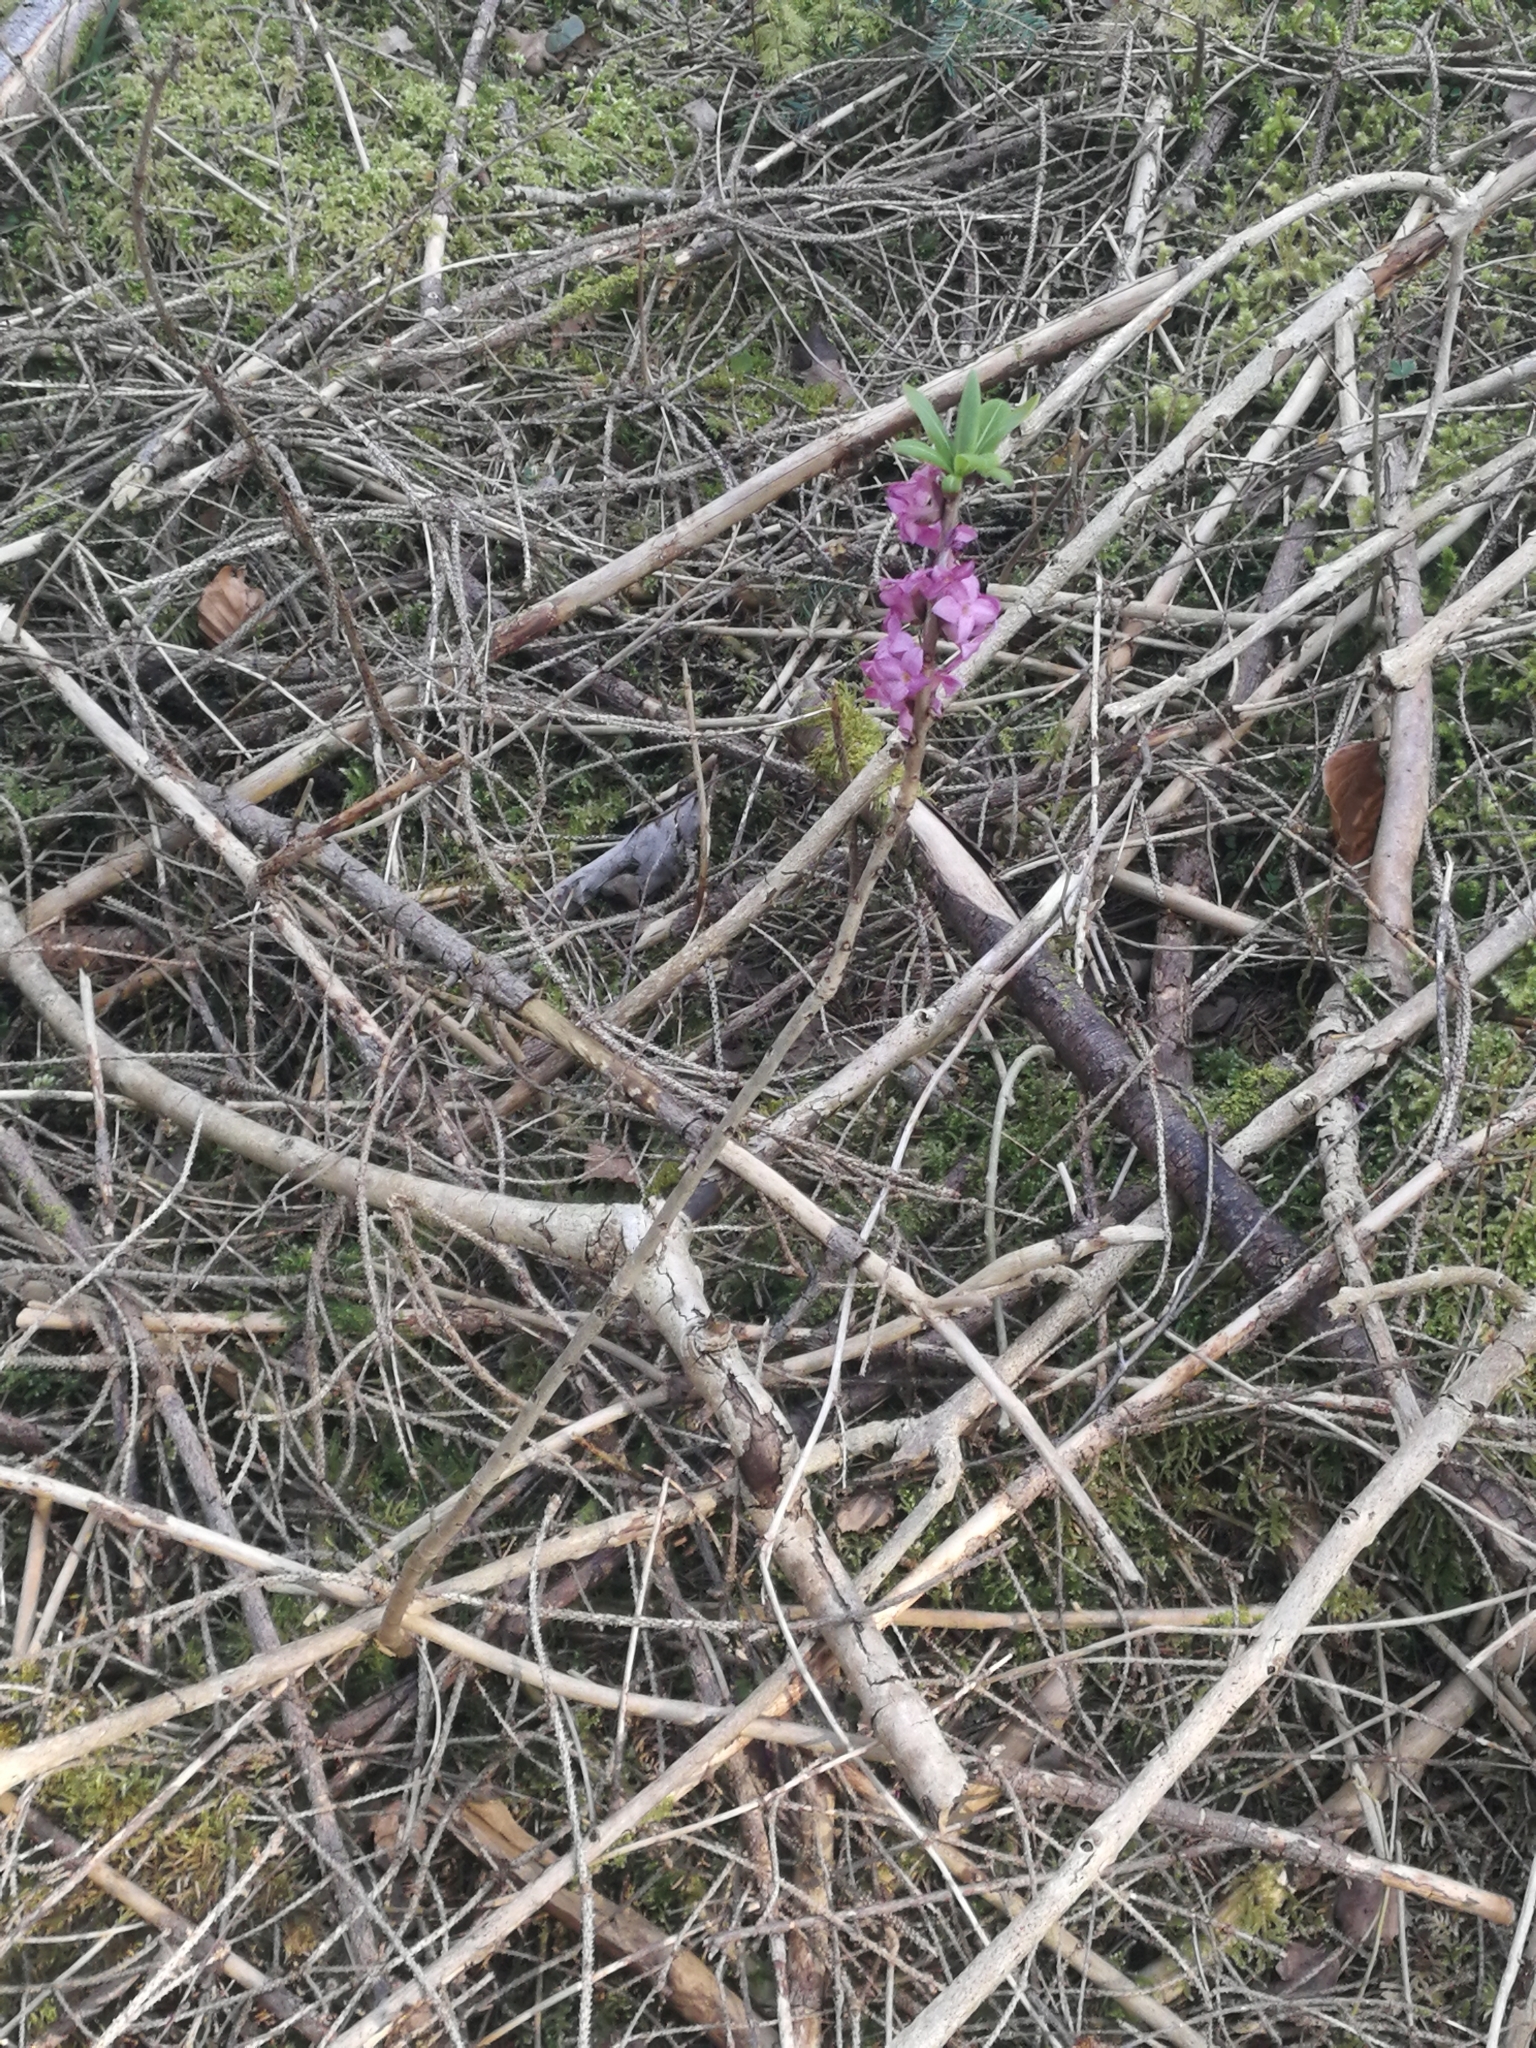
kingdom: Plantae
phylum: Tracheophyta
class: Magnoliopsida
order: Malvales
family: Thymelaeaceae
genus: Daphne
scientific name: Daphne mezereum
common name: Mezereon
